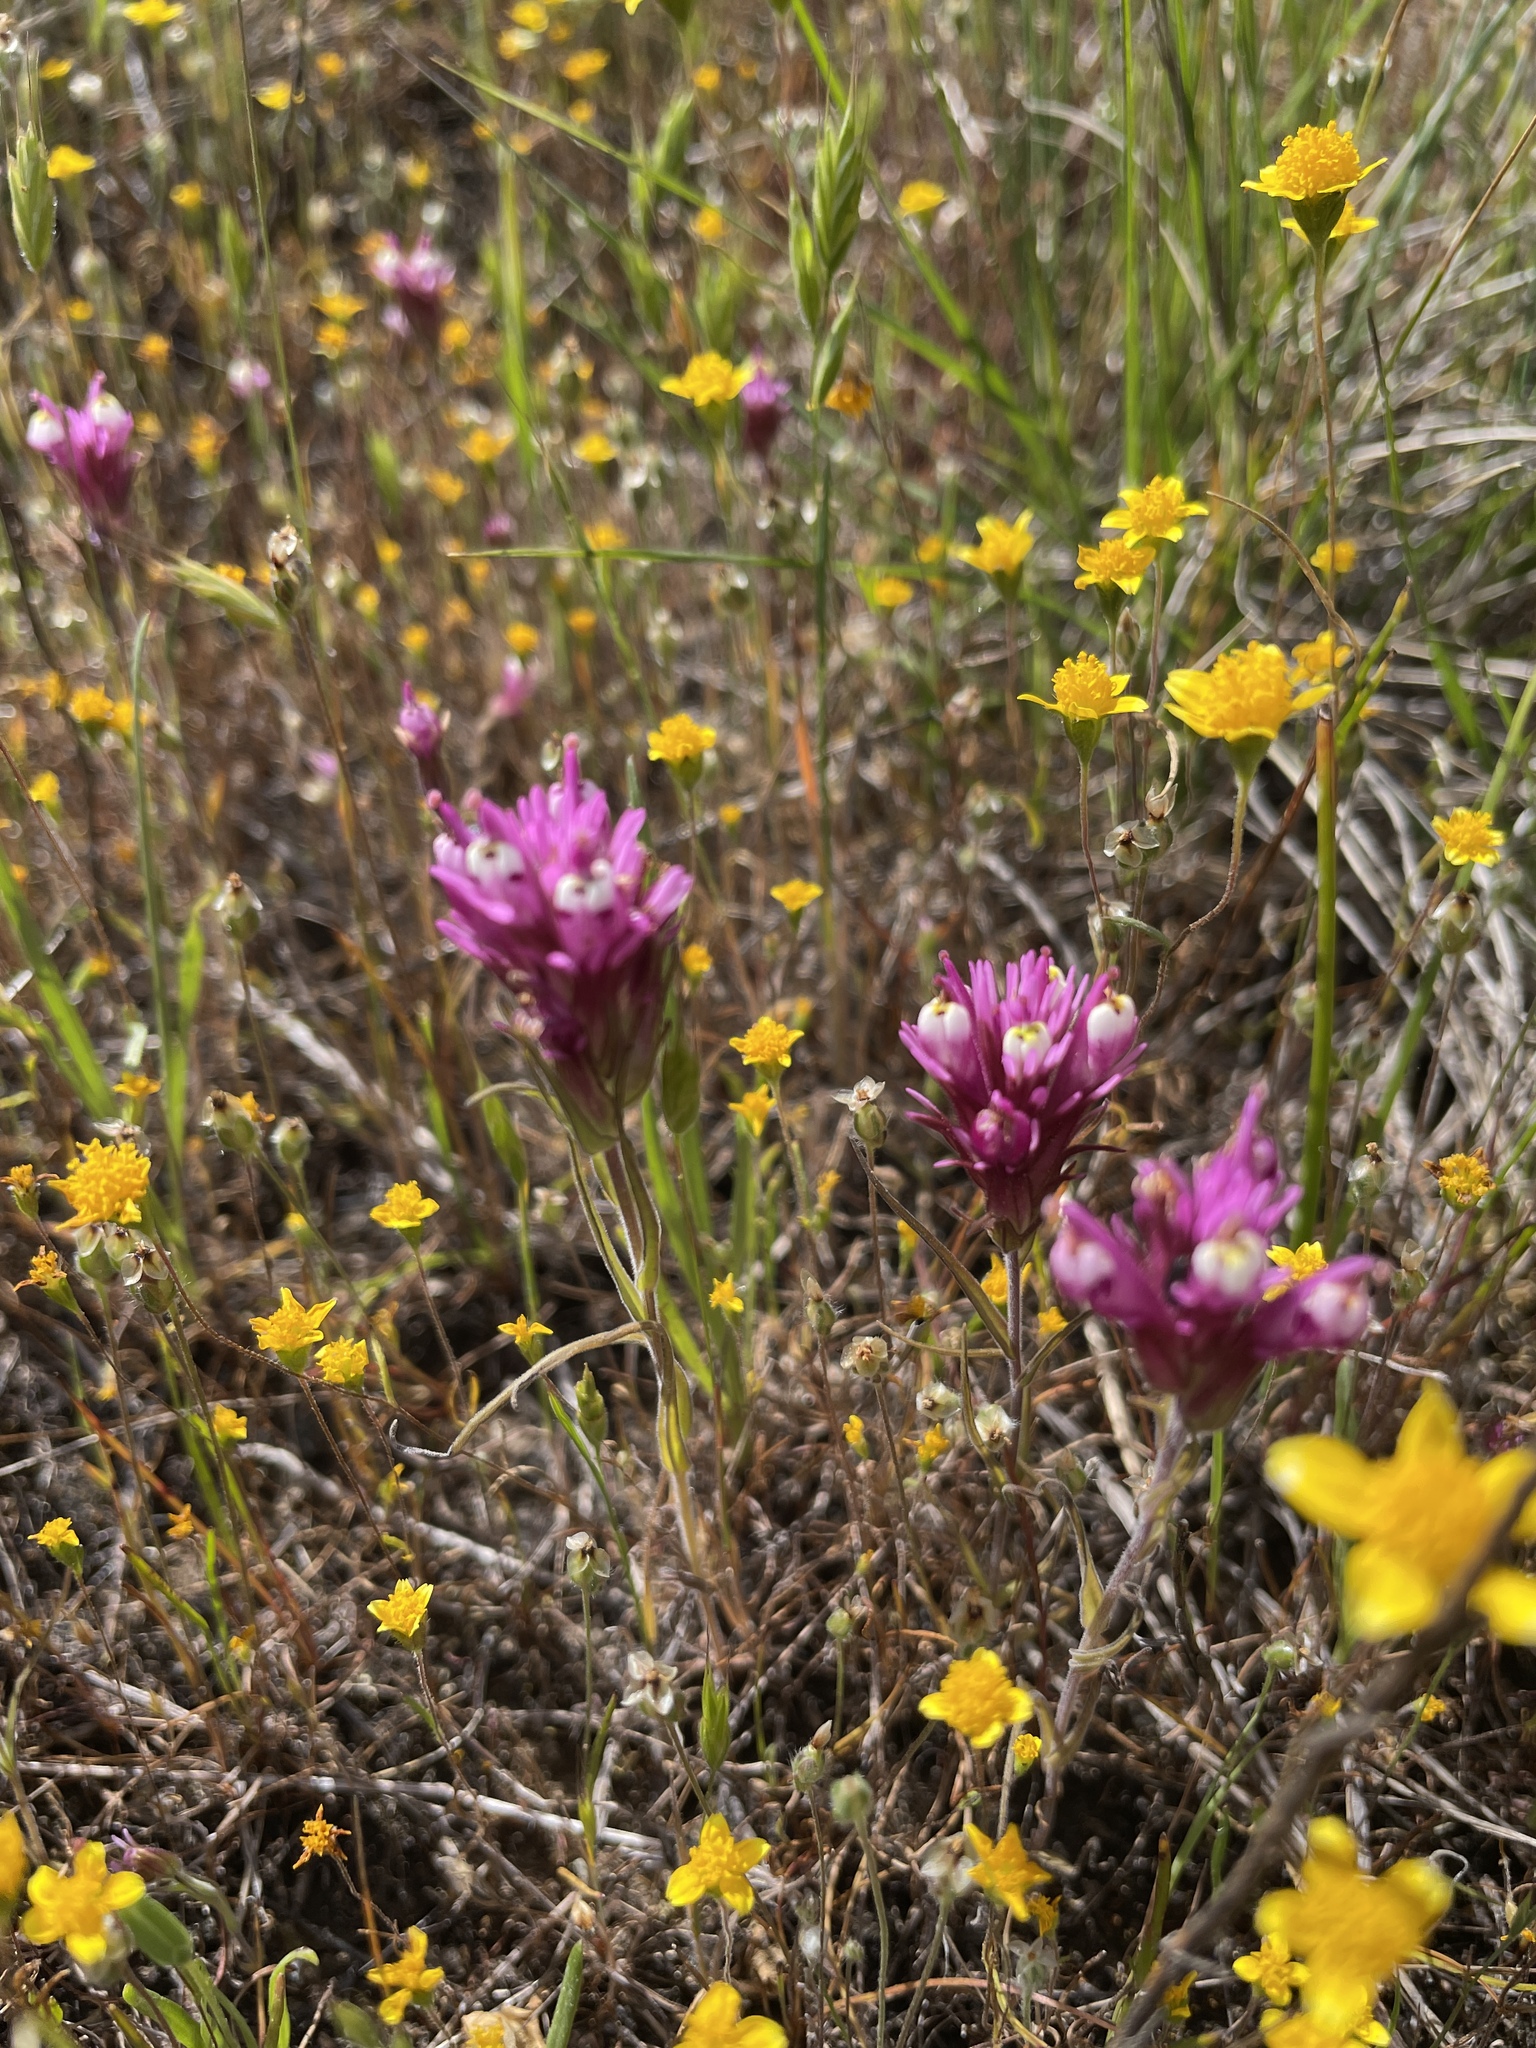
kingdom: Plantae
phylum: Tracheophyta
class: Magnoliopsida
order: Lamiales
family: Orobanchaceae
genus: Castilleja
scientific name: Castilleja densiflora
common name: Dense-flower indian paintbrush
